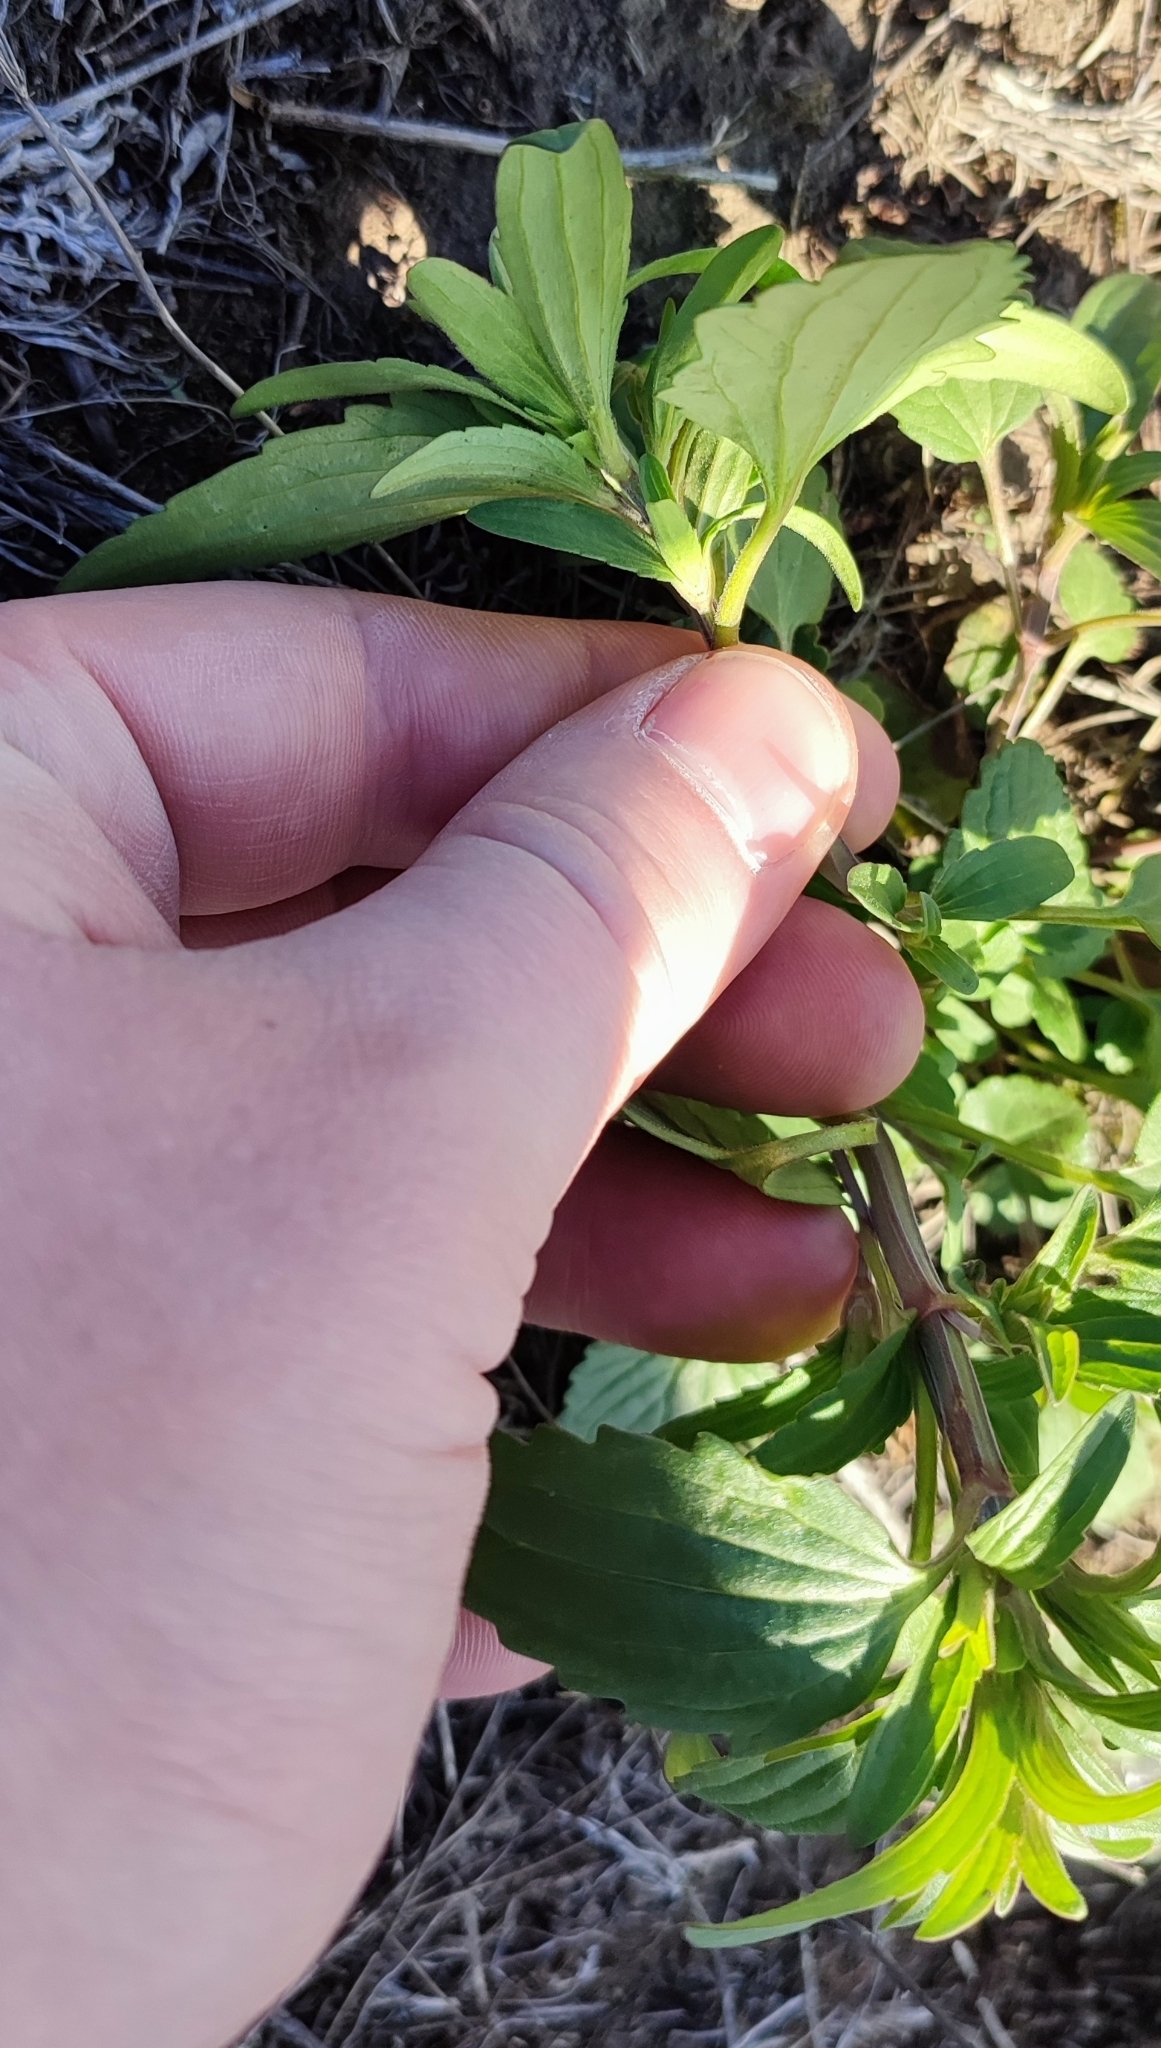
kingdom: Plantae
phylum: Tracheophyta
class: Magnoliopsida
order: Lamiales
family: Lamiaceae
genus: Dracocephalum
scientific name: Dracocephalum thymiflorum
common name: Thymeleaf dragonhead
